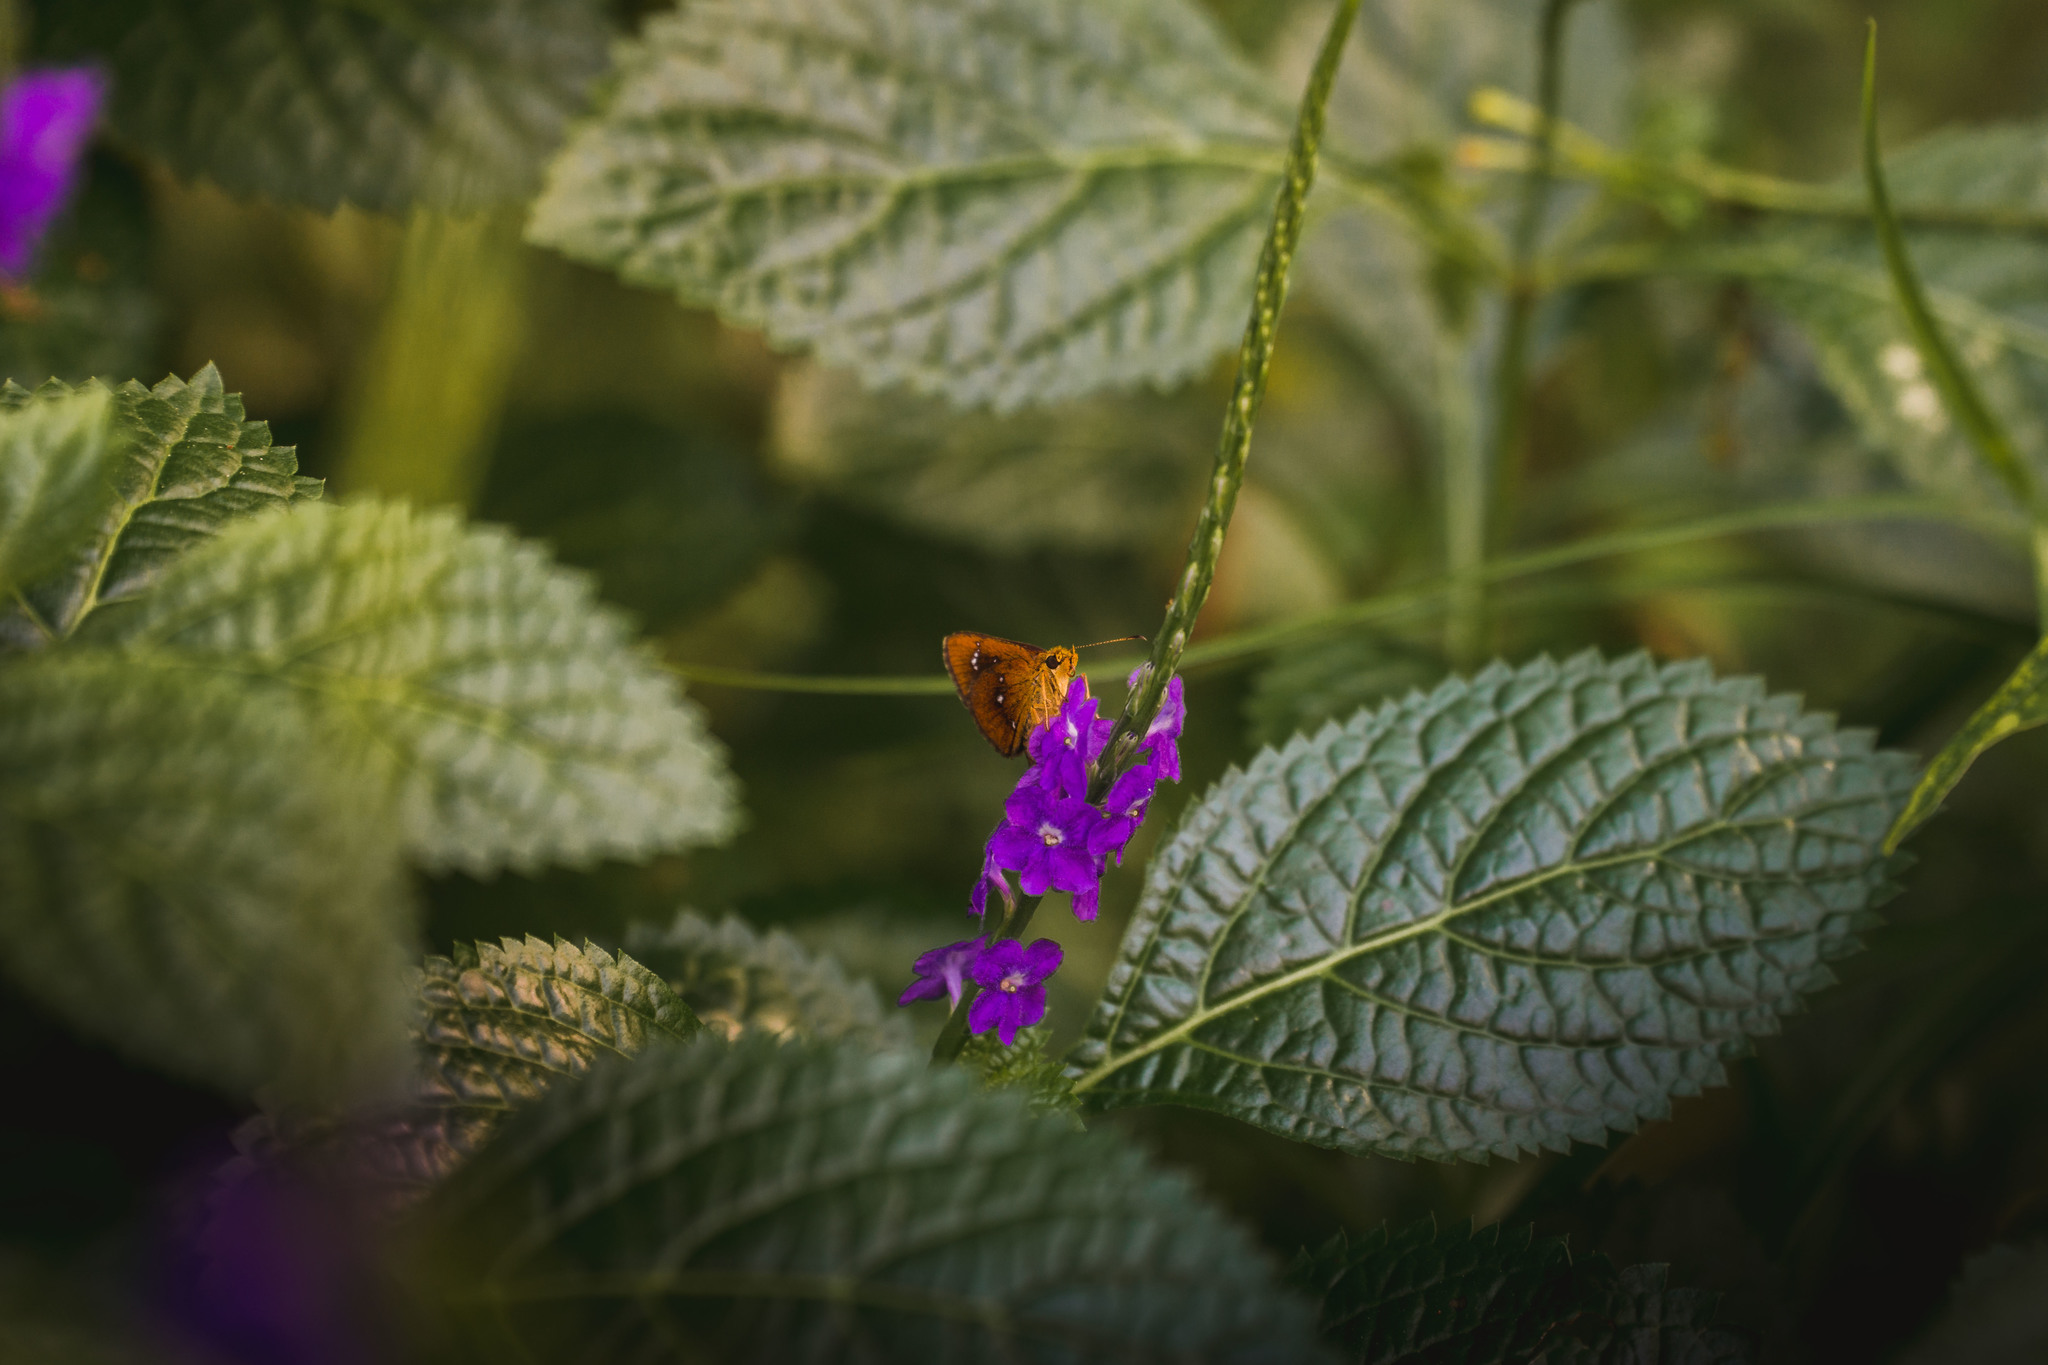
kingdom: Animalia
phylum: Arthropoda
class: Insecta
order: Lepidoptera
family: Hesperiidae
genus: Iambrix
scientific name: Iambrix salsala
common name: Chestnut bob
